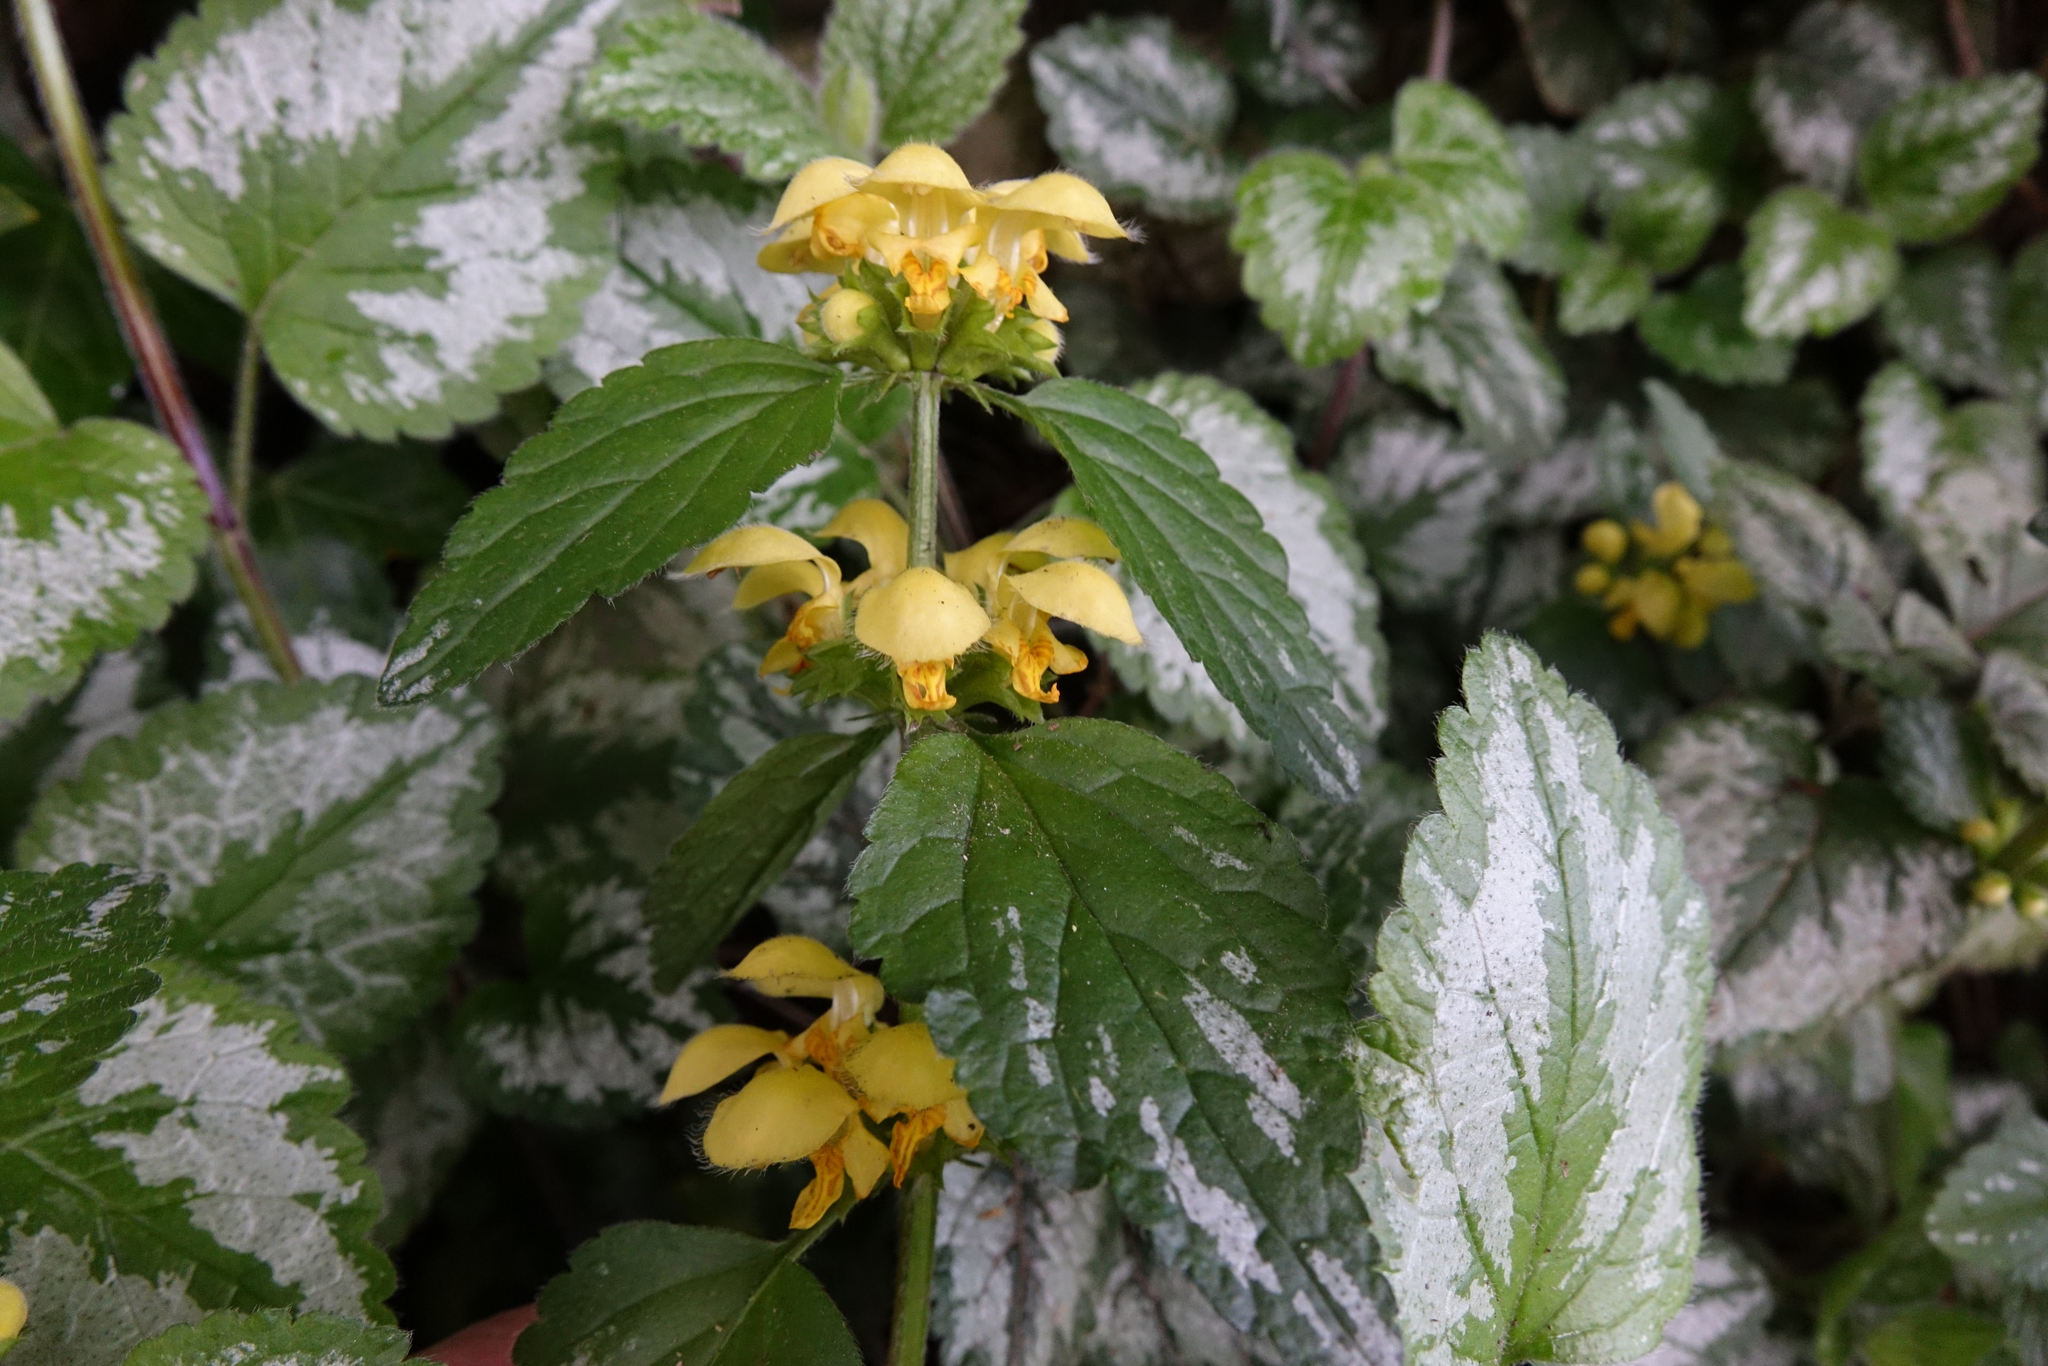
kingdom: Plantae
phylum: Tracheophyta
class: Magnoliopsida
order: Lamiales
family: Lamiaceae
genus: Lamium
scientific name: Lamium galeobdolon
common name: Yellow archangel
